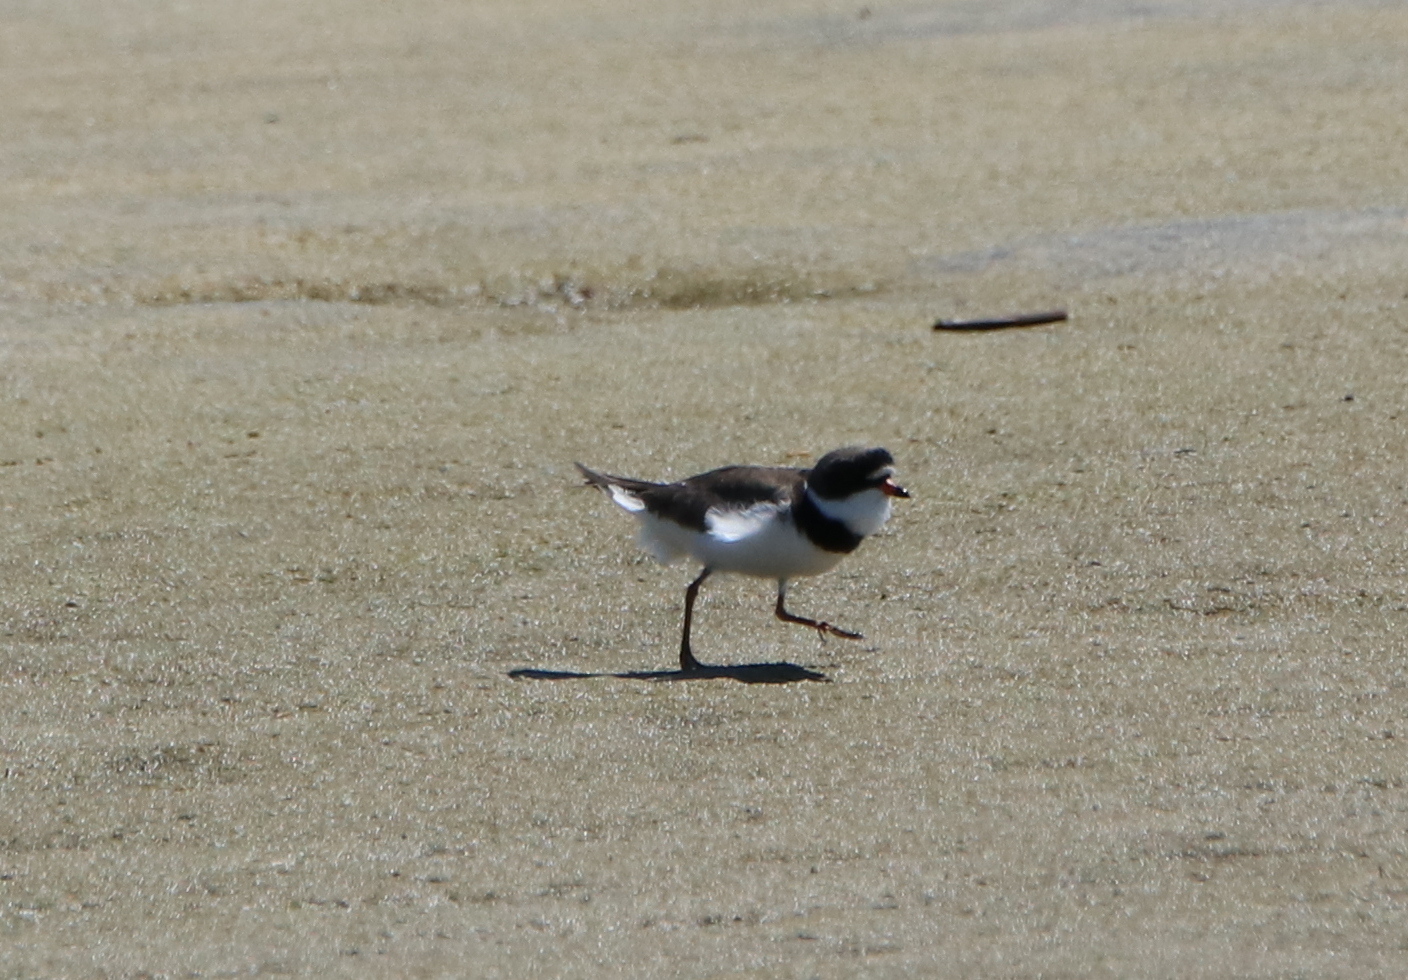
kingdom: Animalia
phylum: Chordata
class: Aves
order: Charadriiformes
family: Charadriidae
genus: Charadrius
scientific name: Charadrius semipalmatus
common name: Semipalmated plover
